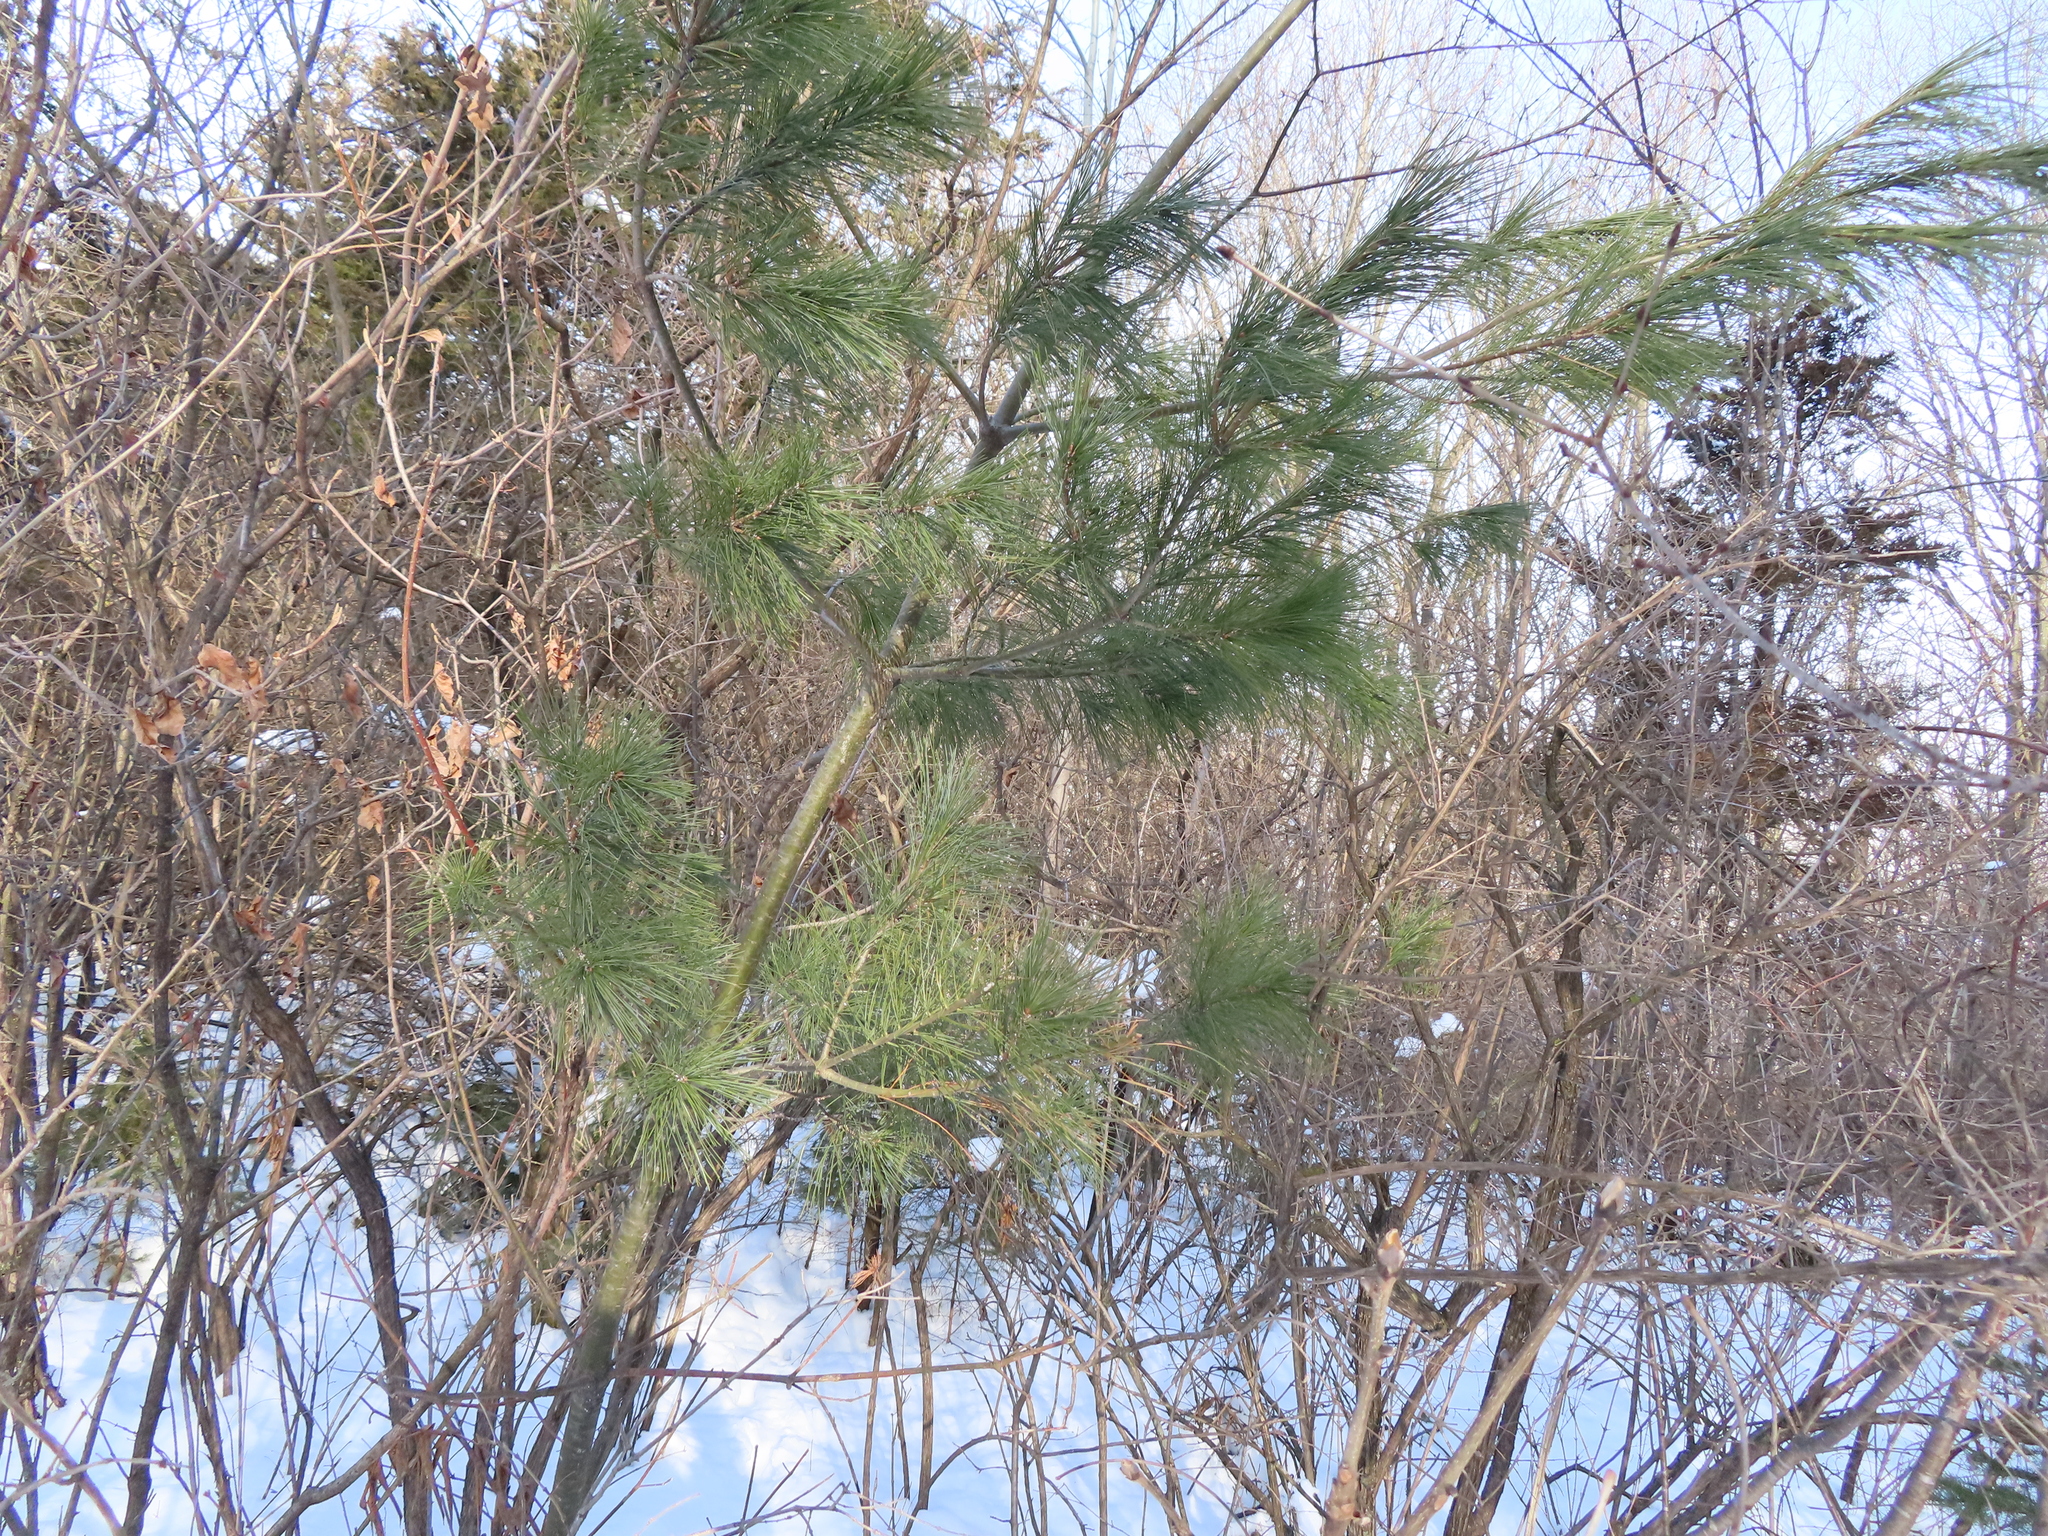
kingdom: Plantae
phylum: Tracheophyta
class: Pinopsida
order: Pinales
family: Pinaceae
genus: Pinus
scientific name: Pinus strobus
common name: Weymouth pine
